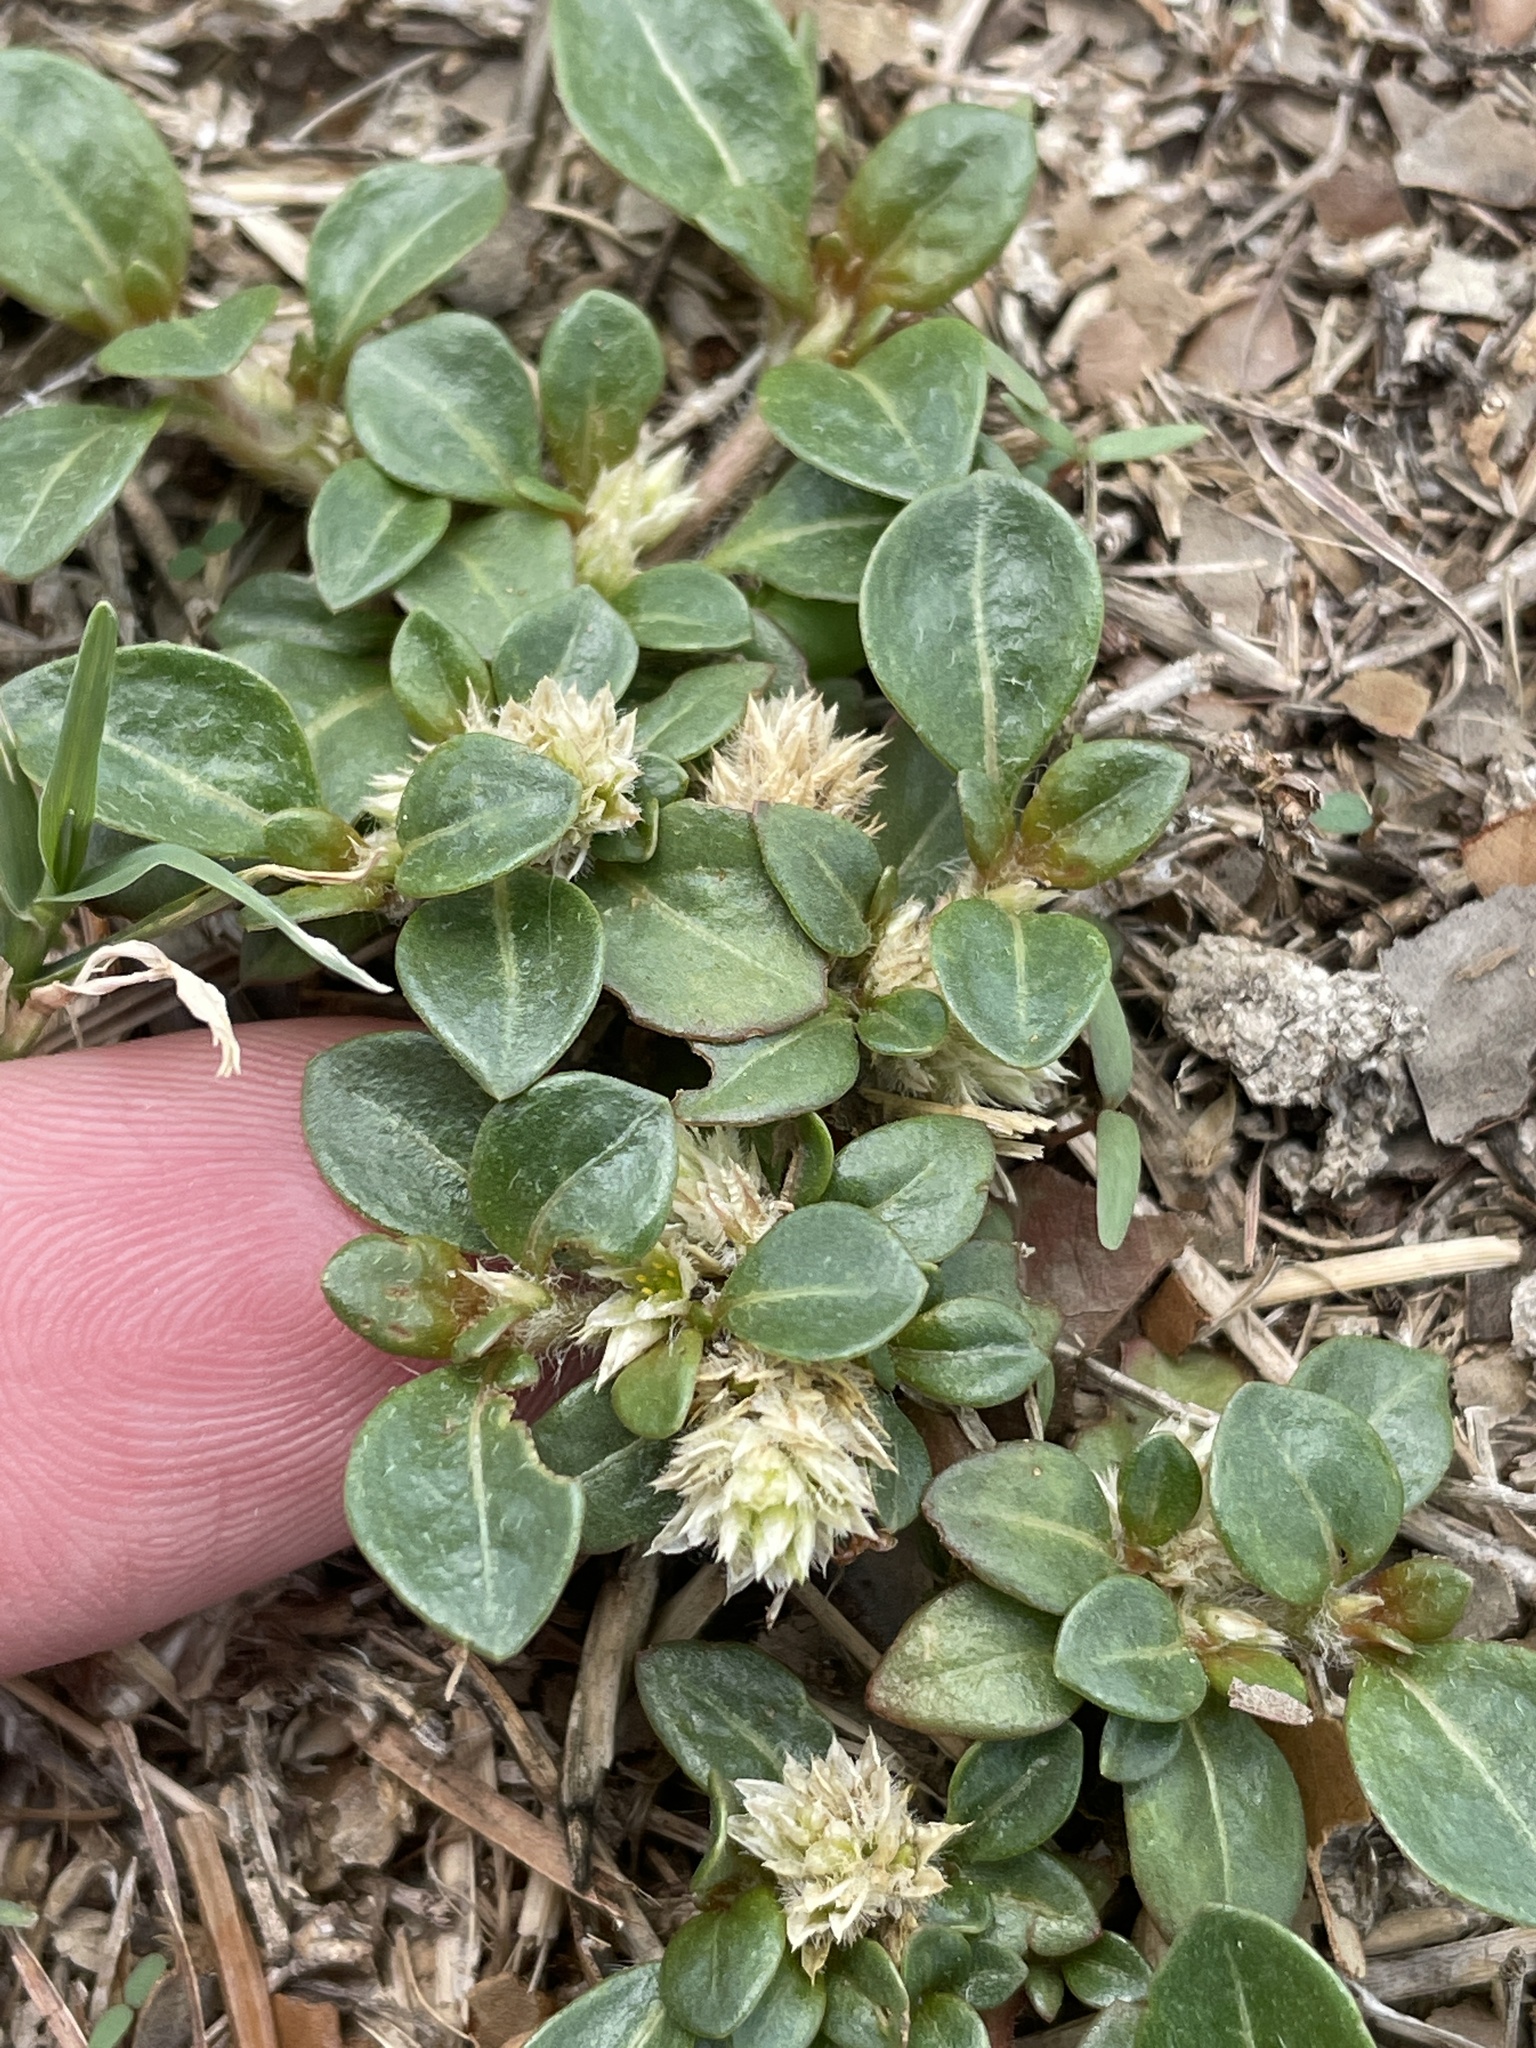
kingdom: Plantae
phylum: Tracheophyta
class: Magnoliopsida
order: Caryophyllales
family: Amaranthaceae
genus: Alternanthera
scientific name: Alternanthera caracasana
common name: Washerwoman
